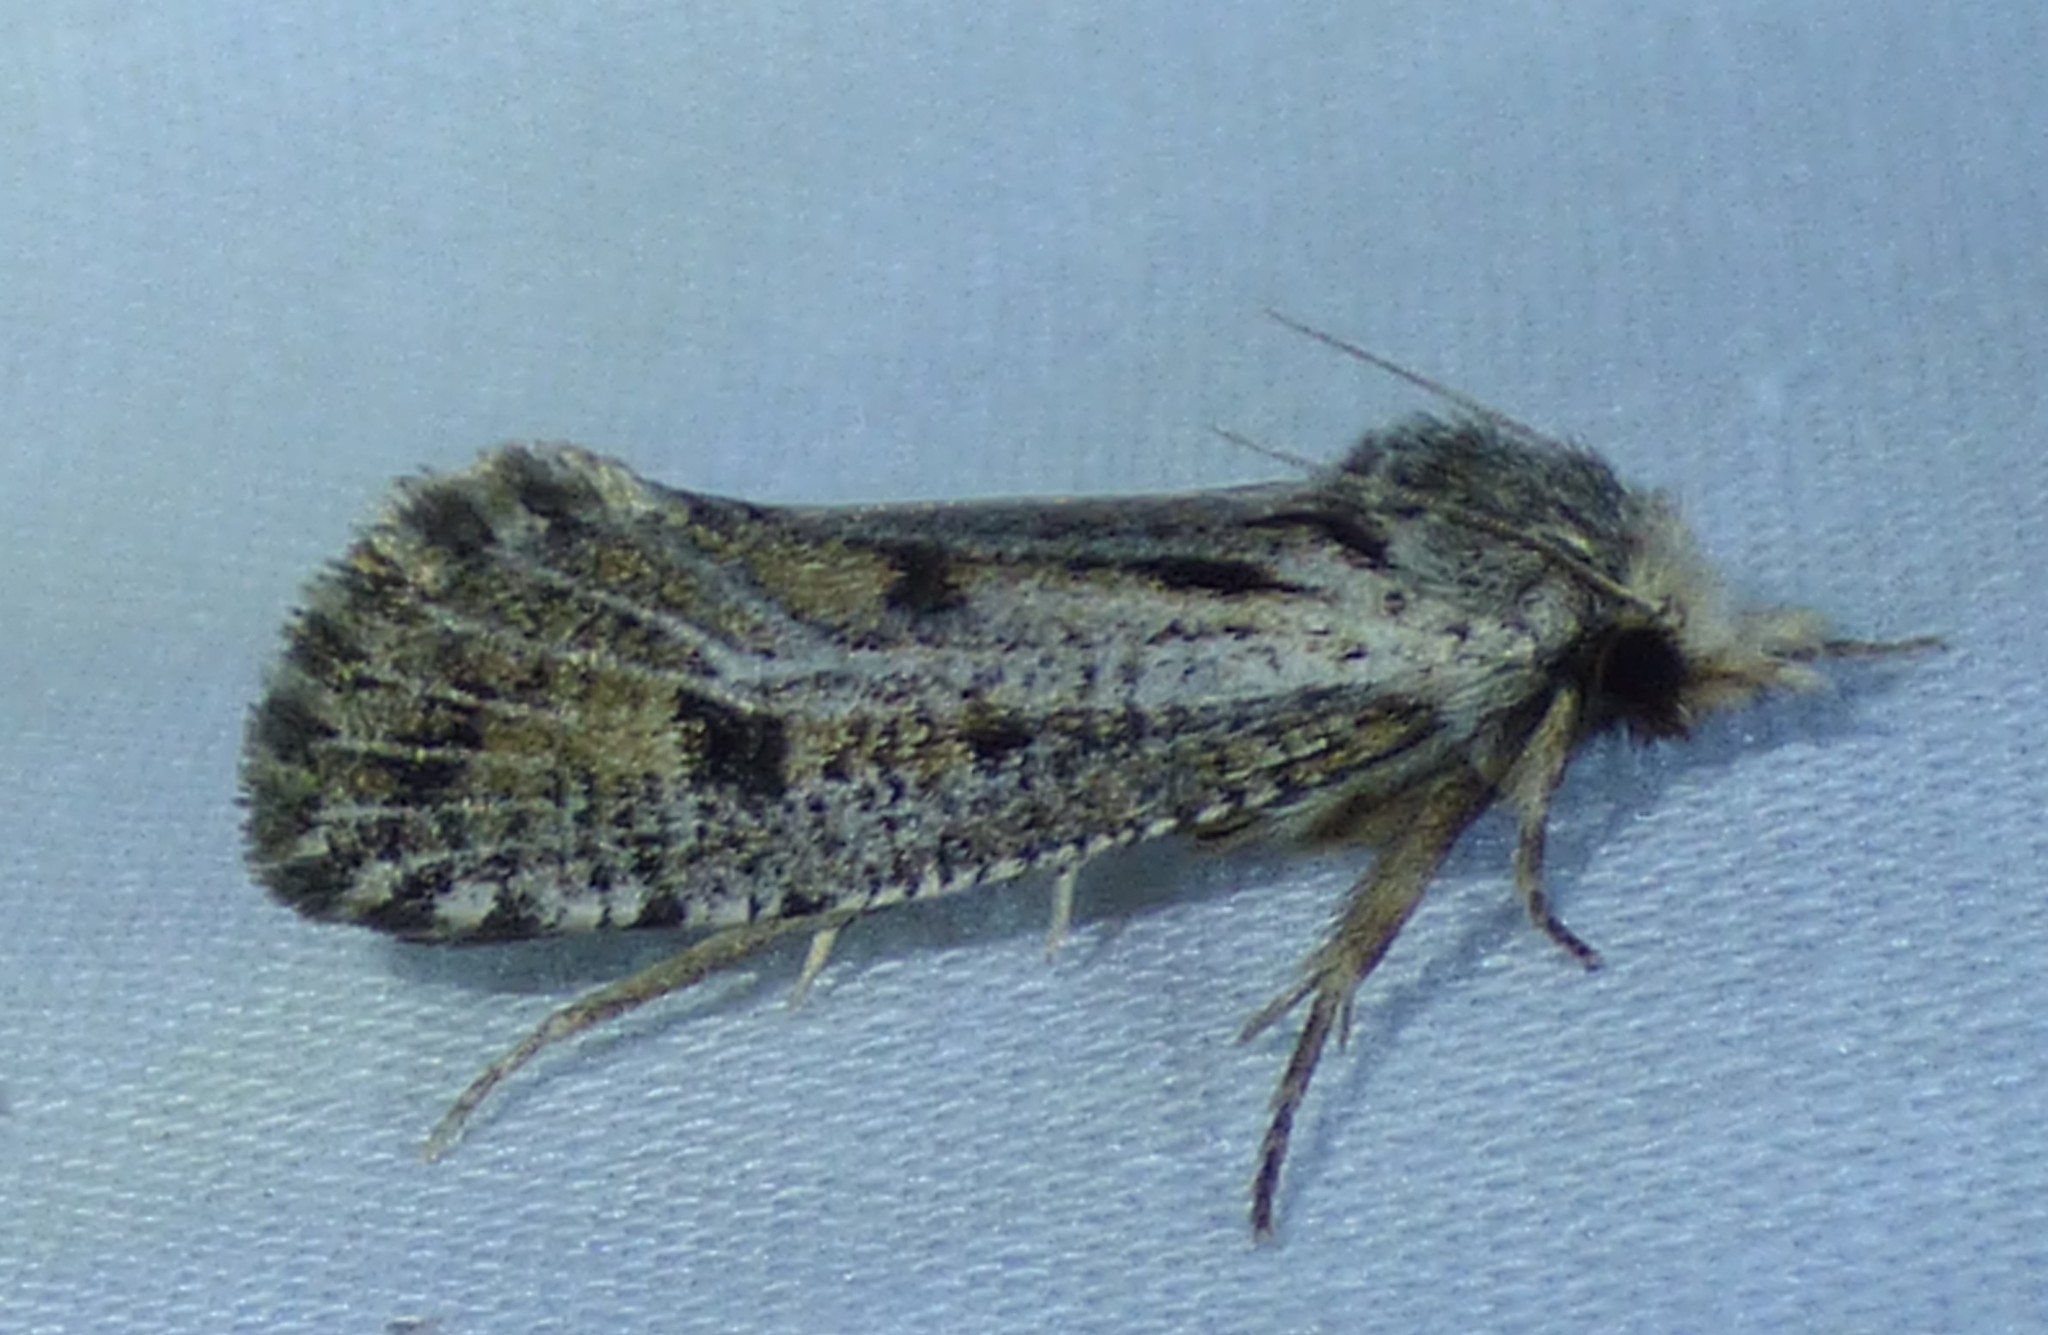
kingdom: Animalia
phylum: Arthropoda
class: Insecta
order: Lepidoptera
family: Tineidae
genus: Acrolophus
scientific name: Acrolophus popeanella
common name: Clemens' grass tubeworm moth
